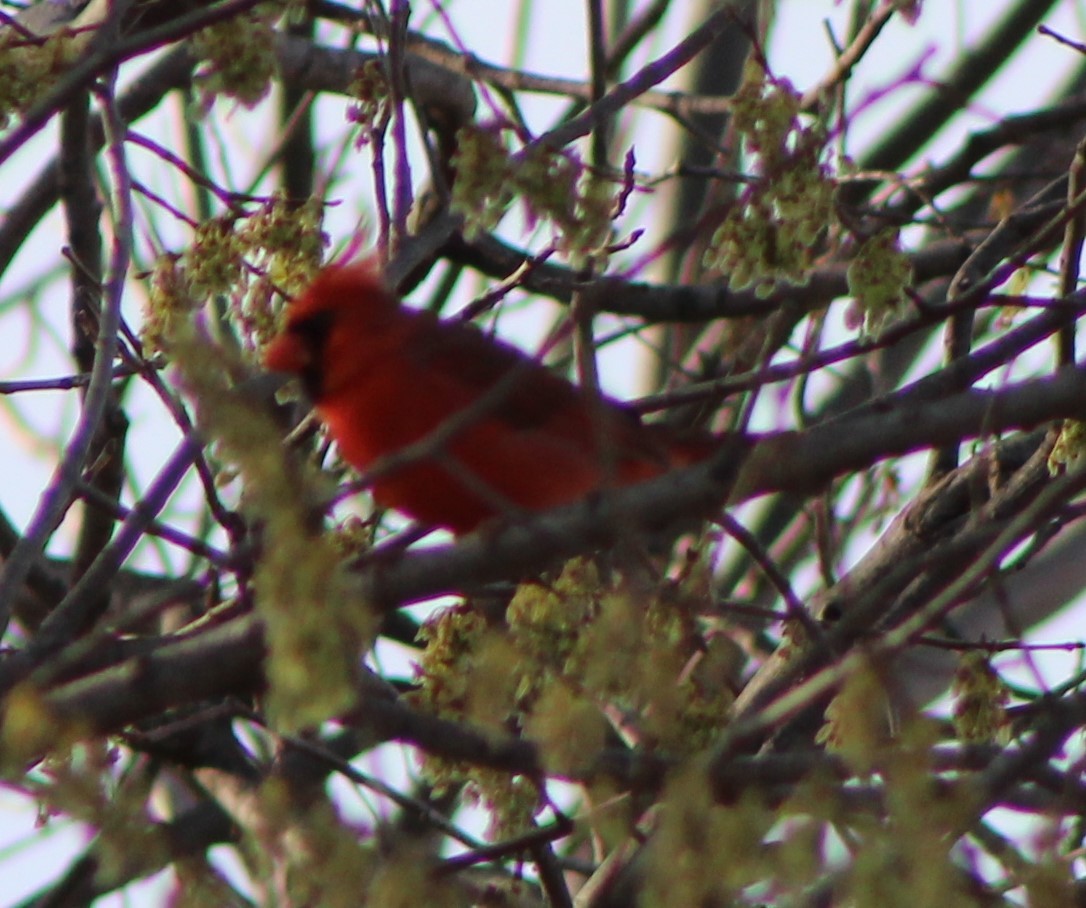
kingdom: Animalia
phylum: Chordata
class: Aves
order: Passeriformes
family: Cardinalidae
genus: Cardinalis
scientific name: Cardinalis cardinalis
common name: Northern cardinal
